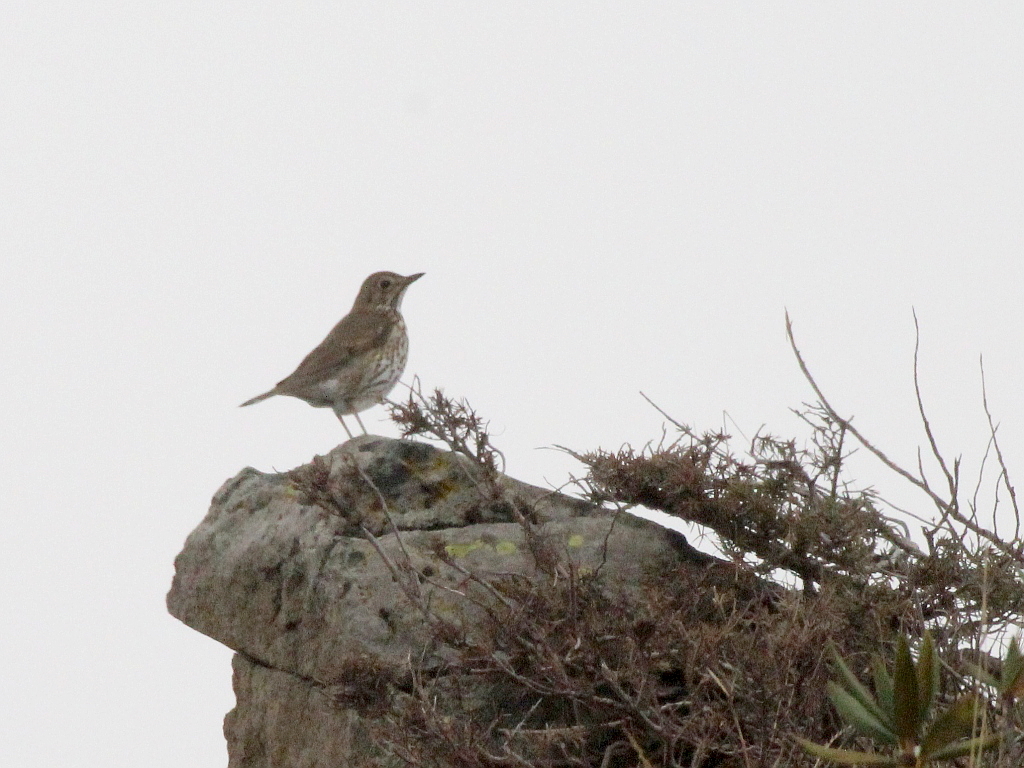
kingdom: Animalia
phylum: Chordata
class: Aves
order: Passeriformes
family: Turdidae
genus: Turdus
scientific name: Turdus philomelos
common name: Song thrush
